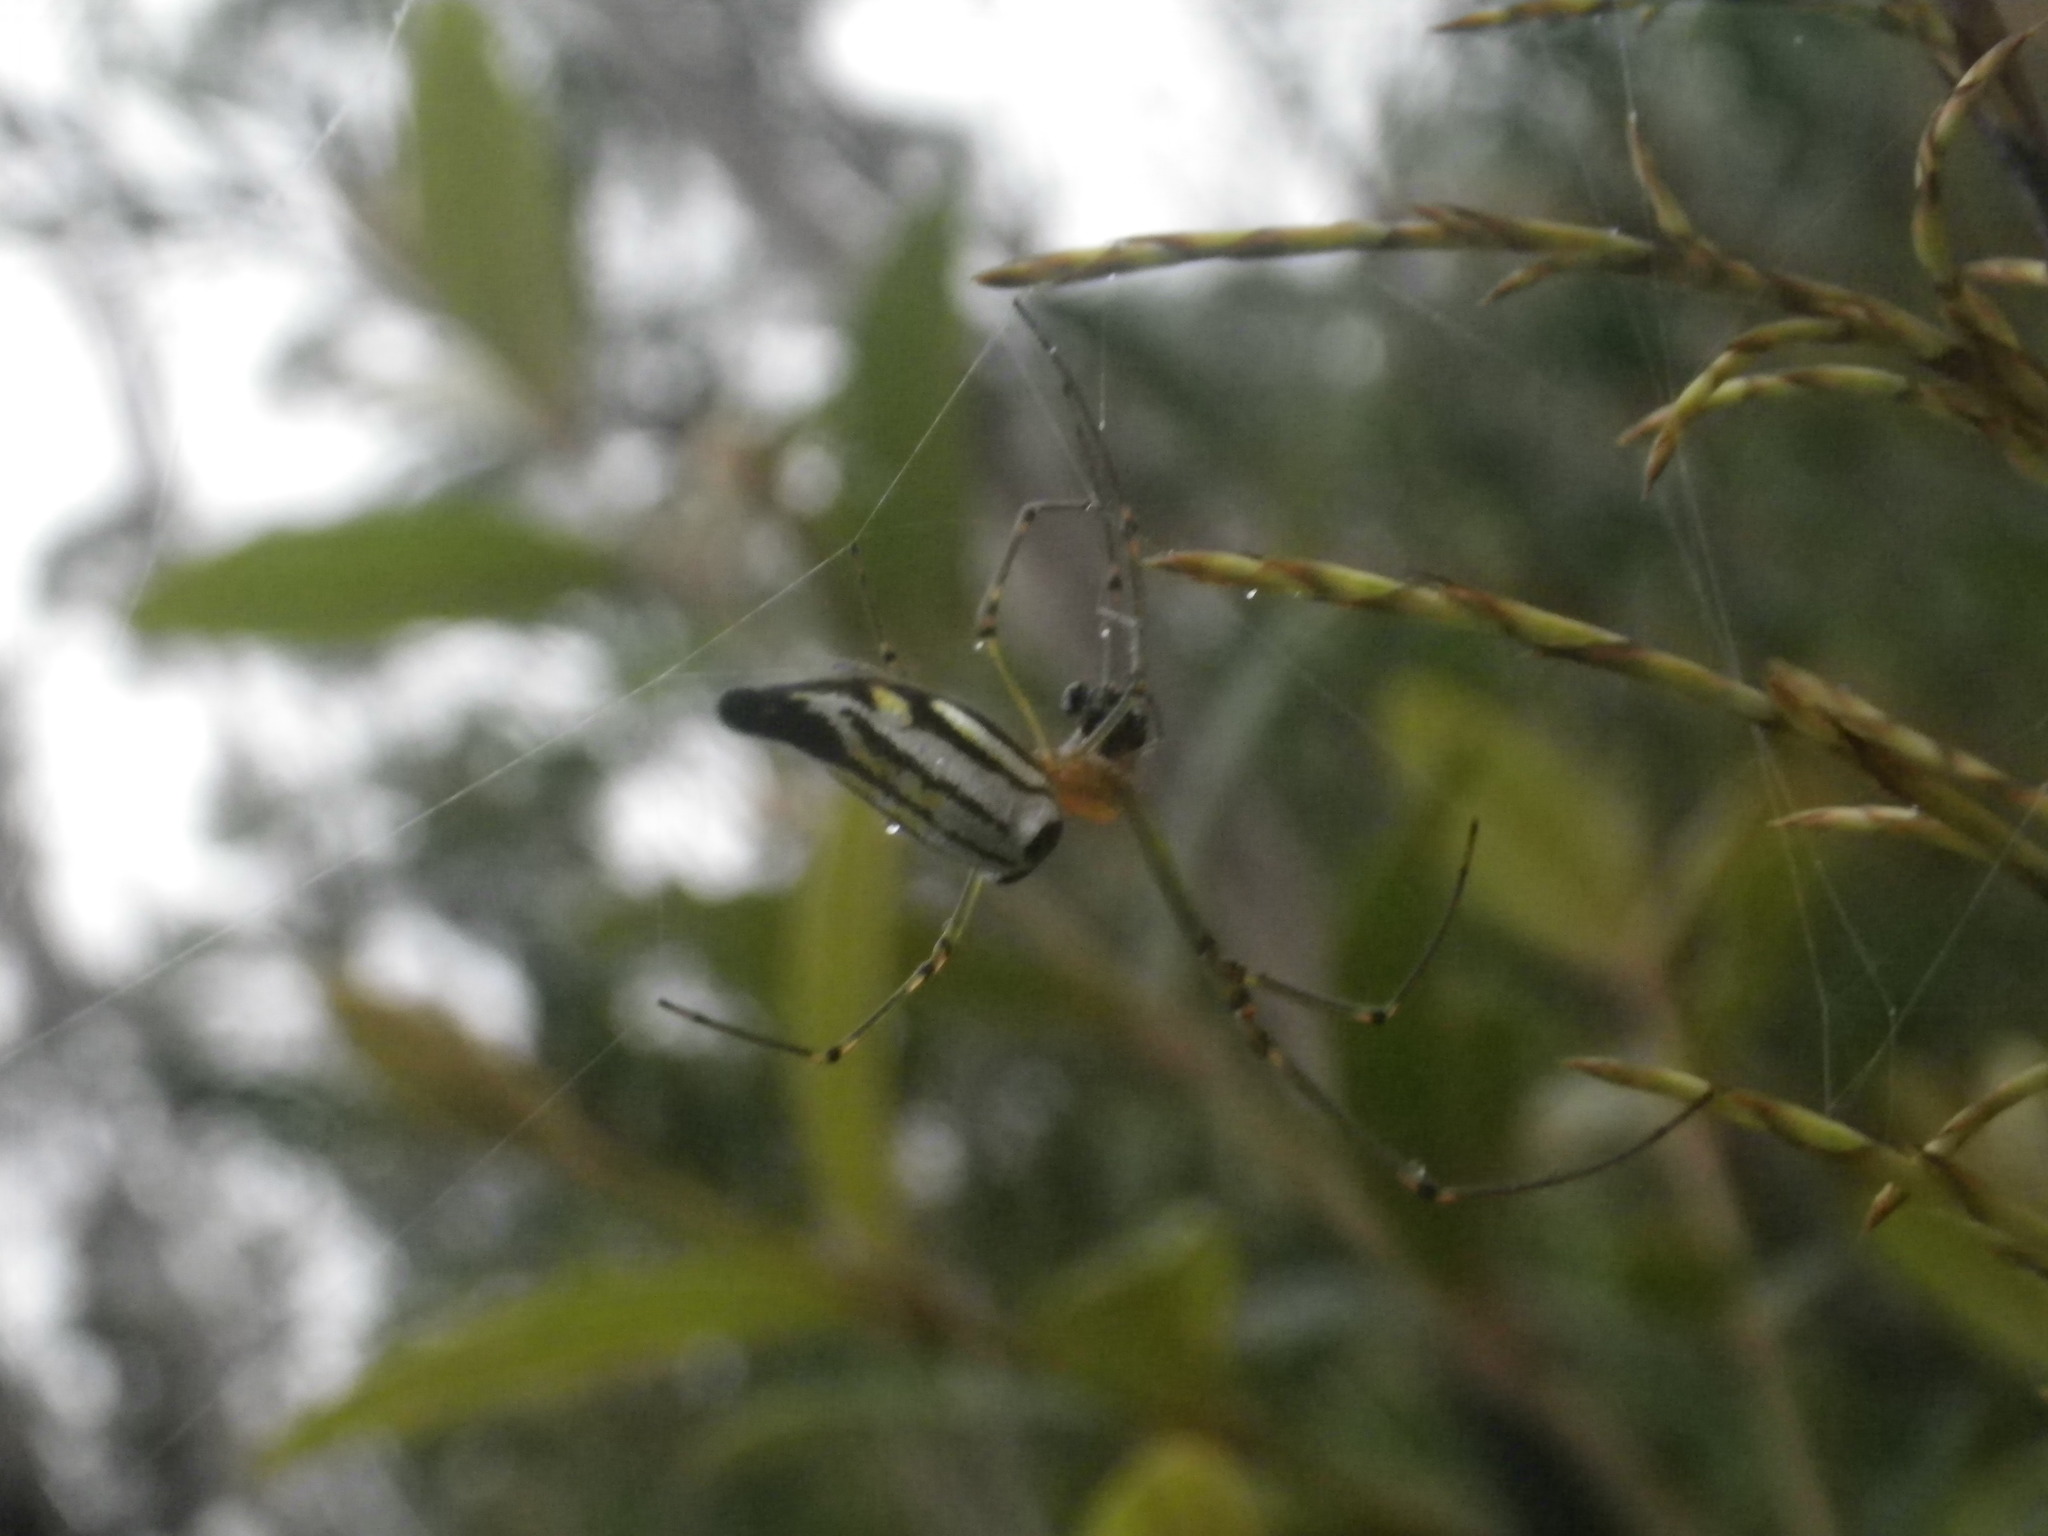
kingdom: Animalia
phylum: Arthropoda
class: Arachnida
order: Araneae
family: Tetragnathidae
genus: Leucauge
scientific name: Leucauge decorata
